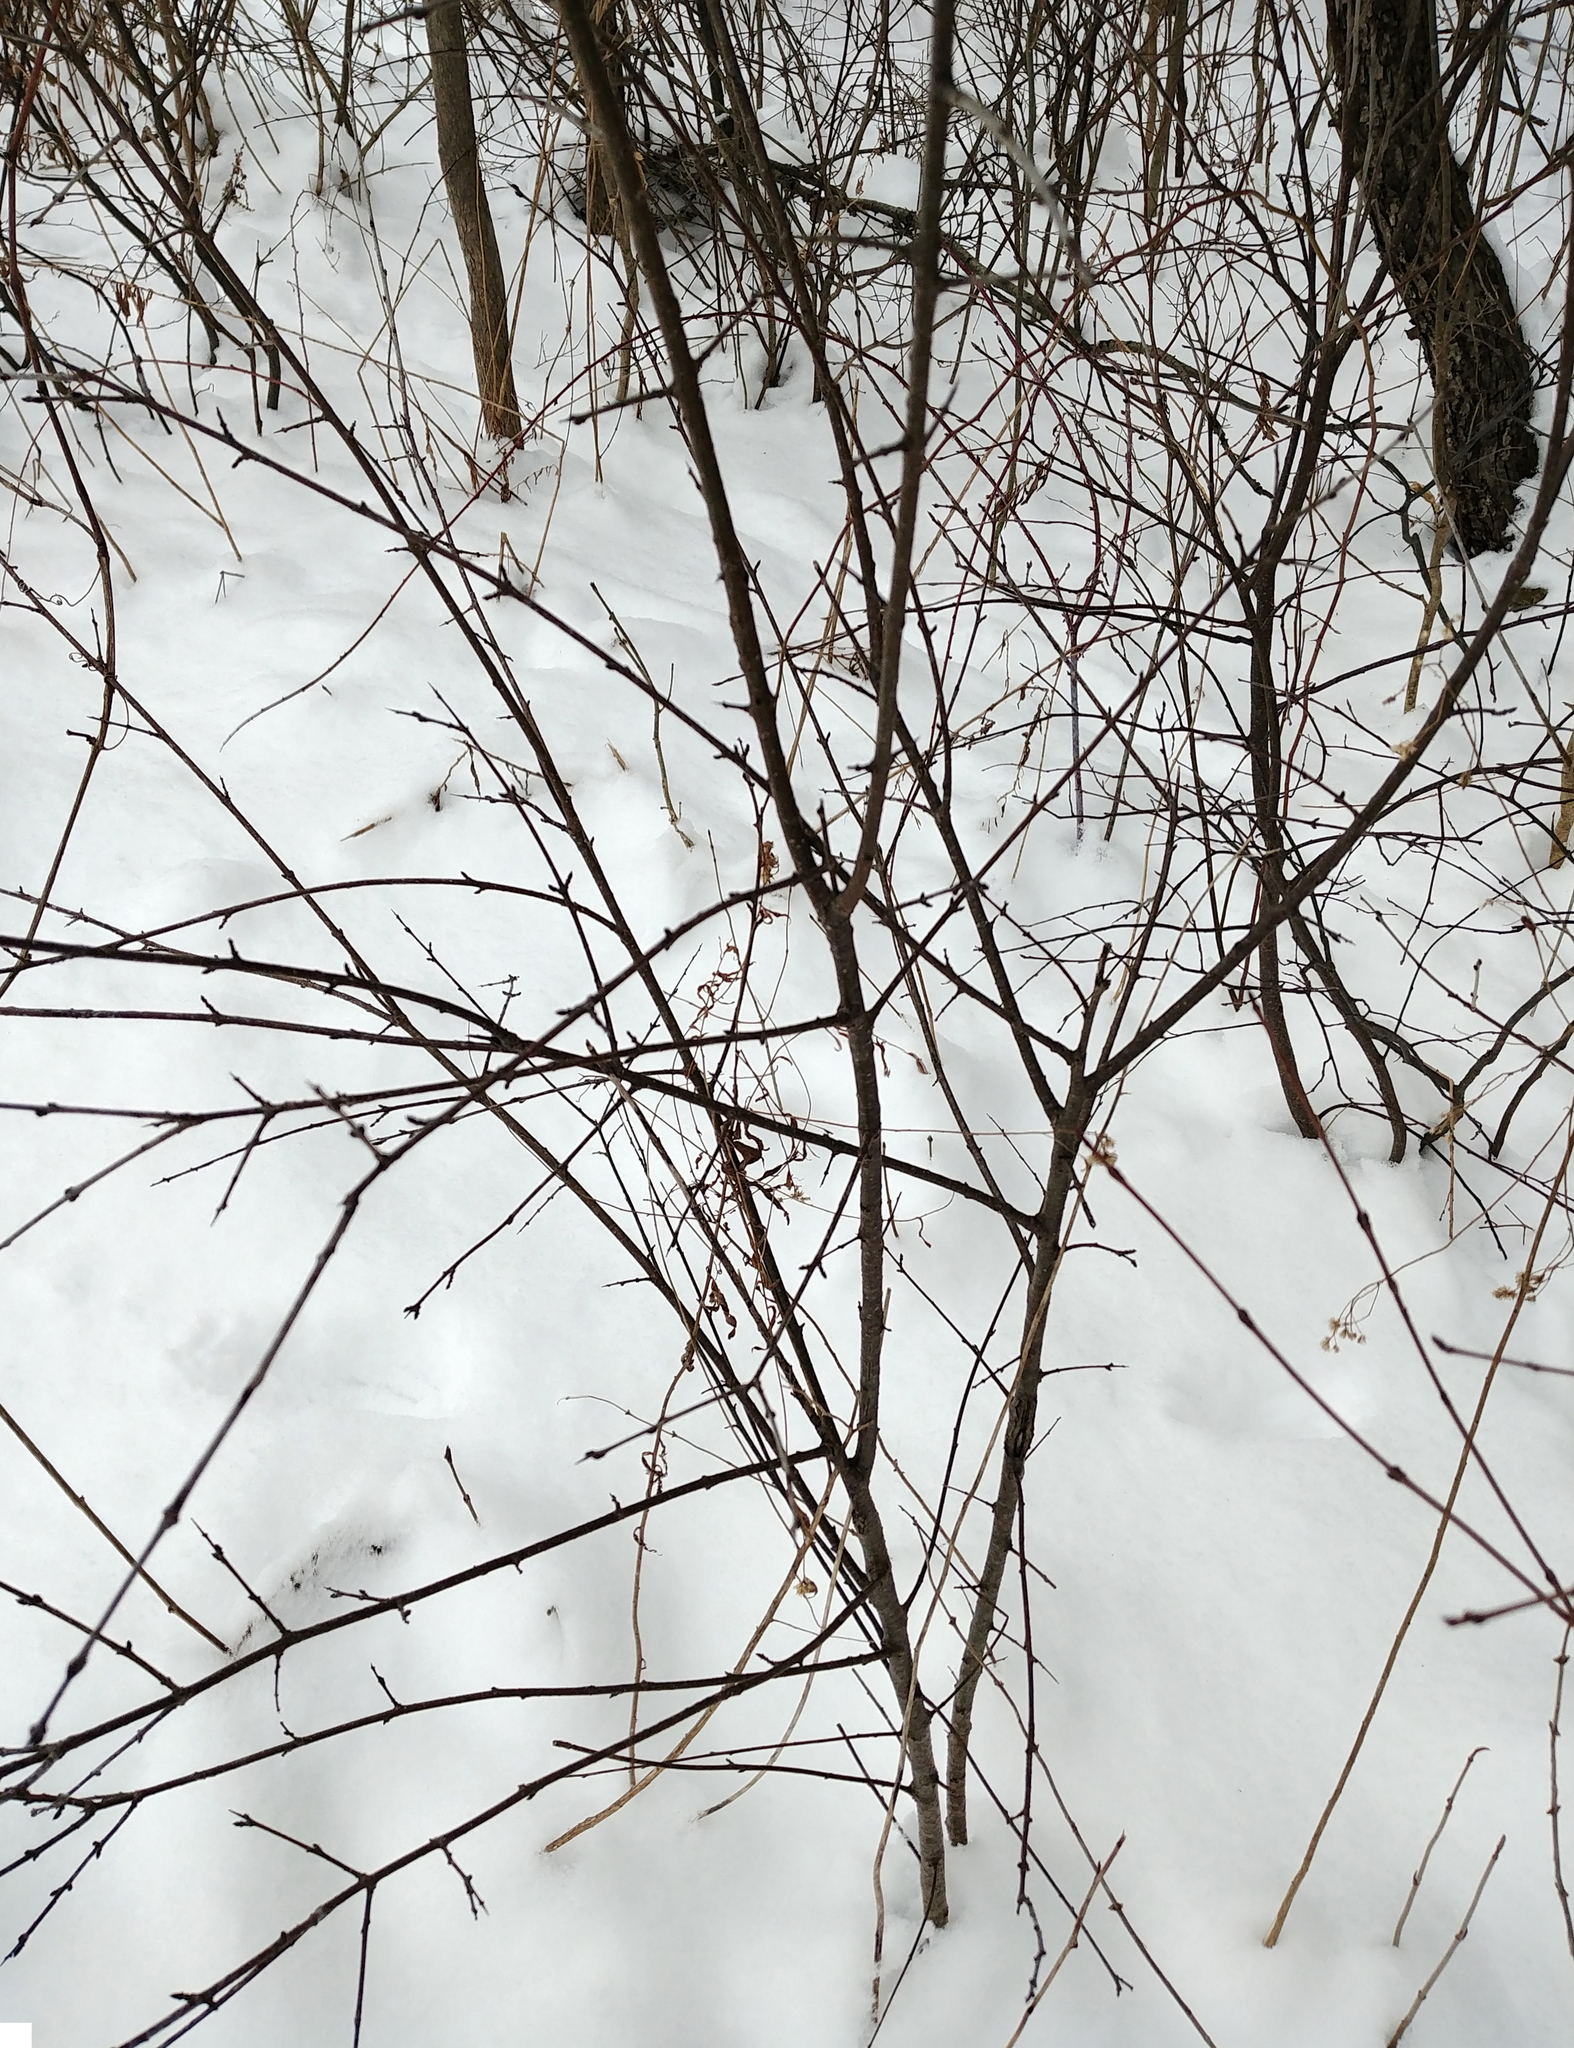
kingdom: Plantae
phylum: Tracheophyta
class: Magnoliopsida
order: Rosales
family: Rhamnaceae
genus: Rhamnus
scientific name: Rhamnus cathartica
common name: Common buckthorn
